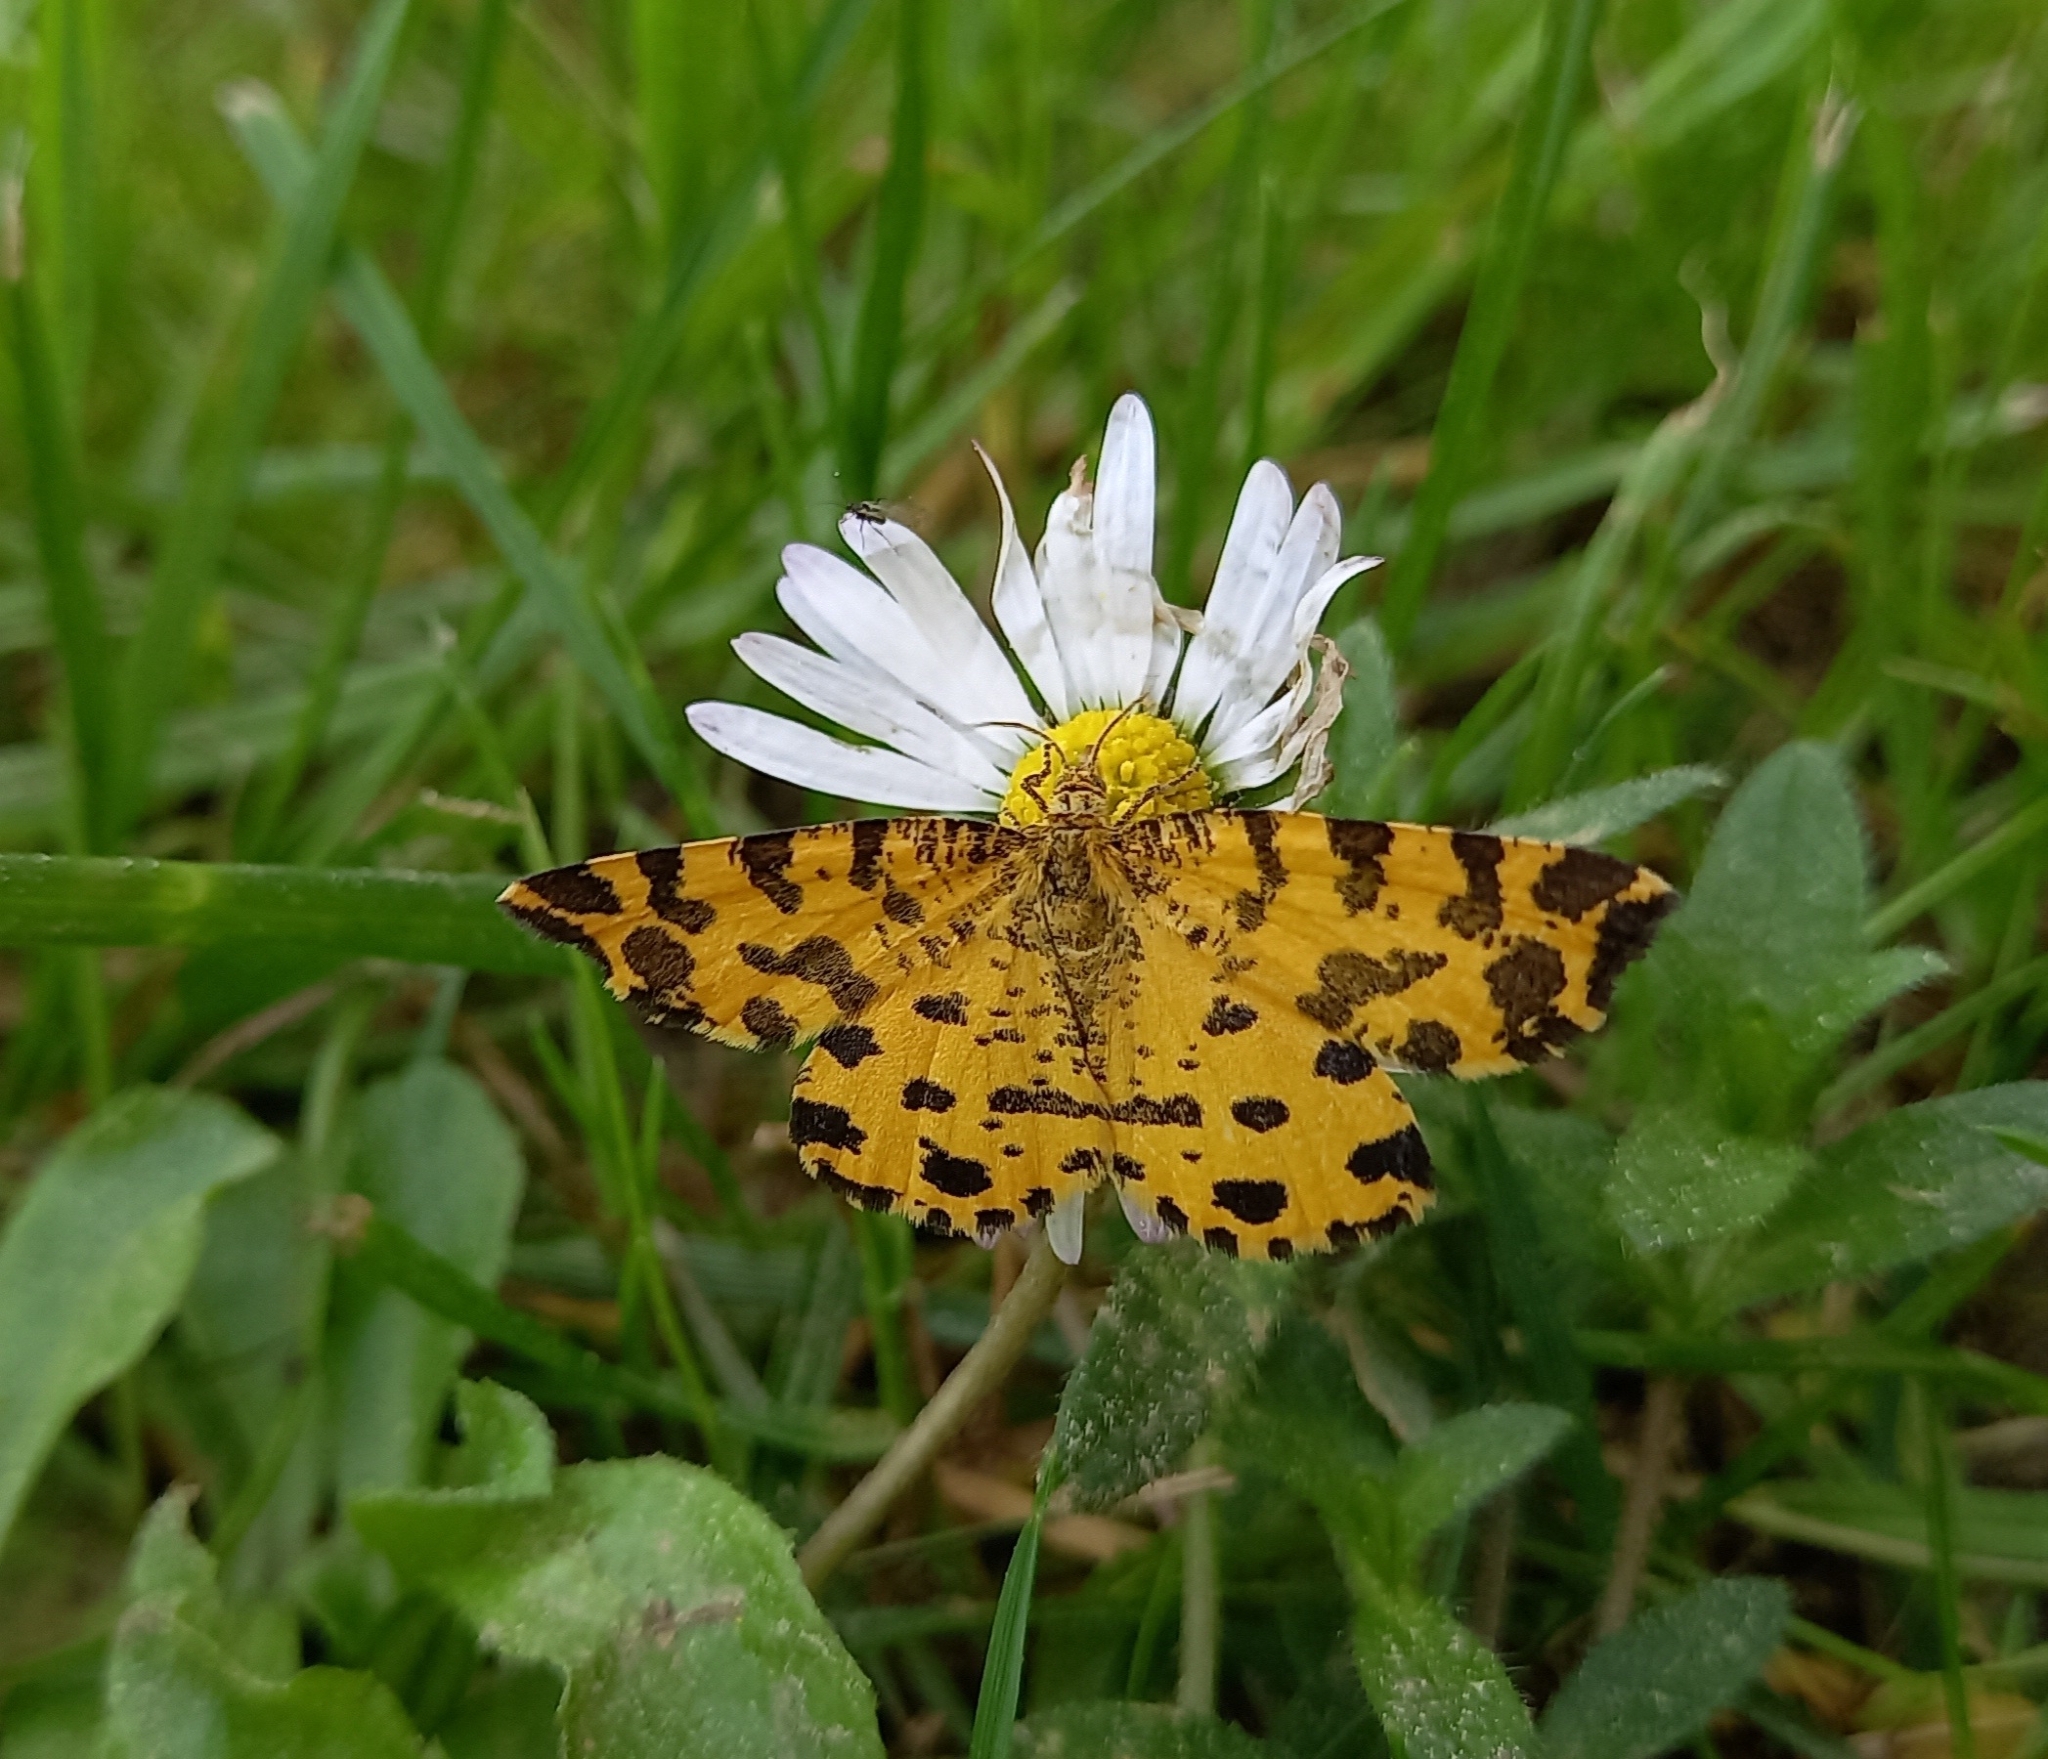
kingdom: Animalia
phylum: Arthropoda
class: Insecta
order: Lepidoptera
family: Geometridae
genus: Pseudopanthera
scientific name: Pseudopanthera macularia
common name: Speckled yellow
